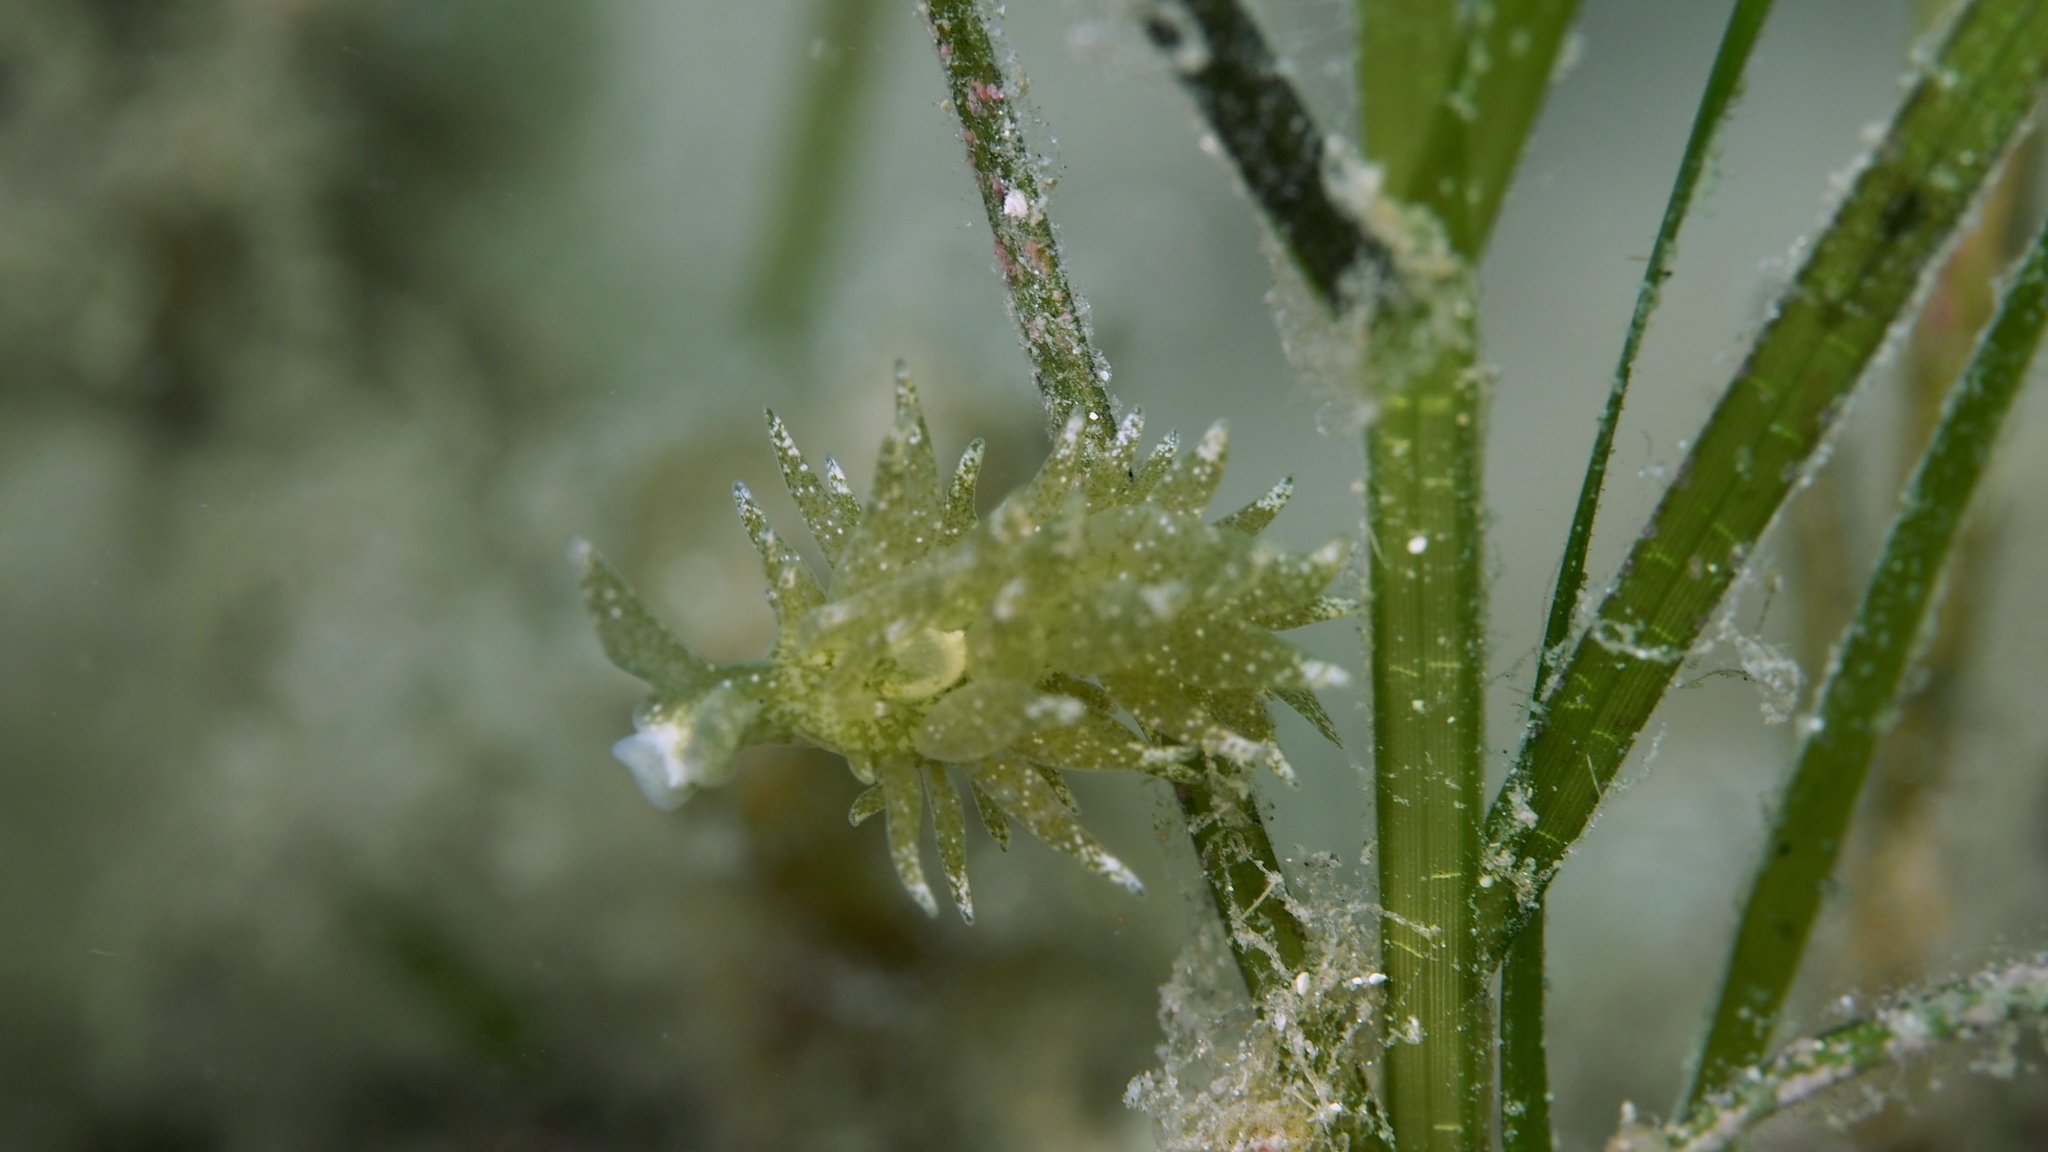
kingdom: Animalia
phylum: Mollusca
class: Gastropoda
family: Limapontiidae
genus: Placida
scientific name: Placida dendritica
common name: Dendritic nudibranch
